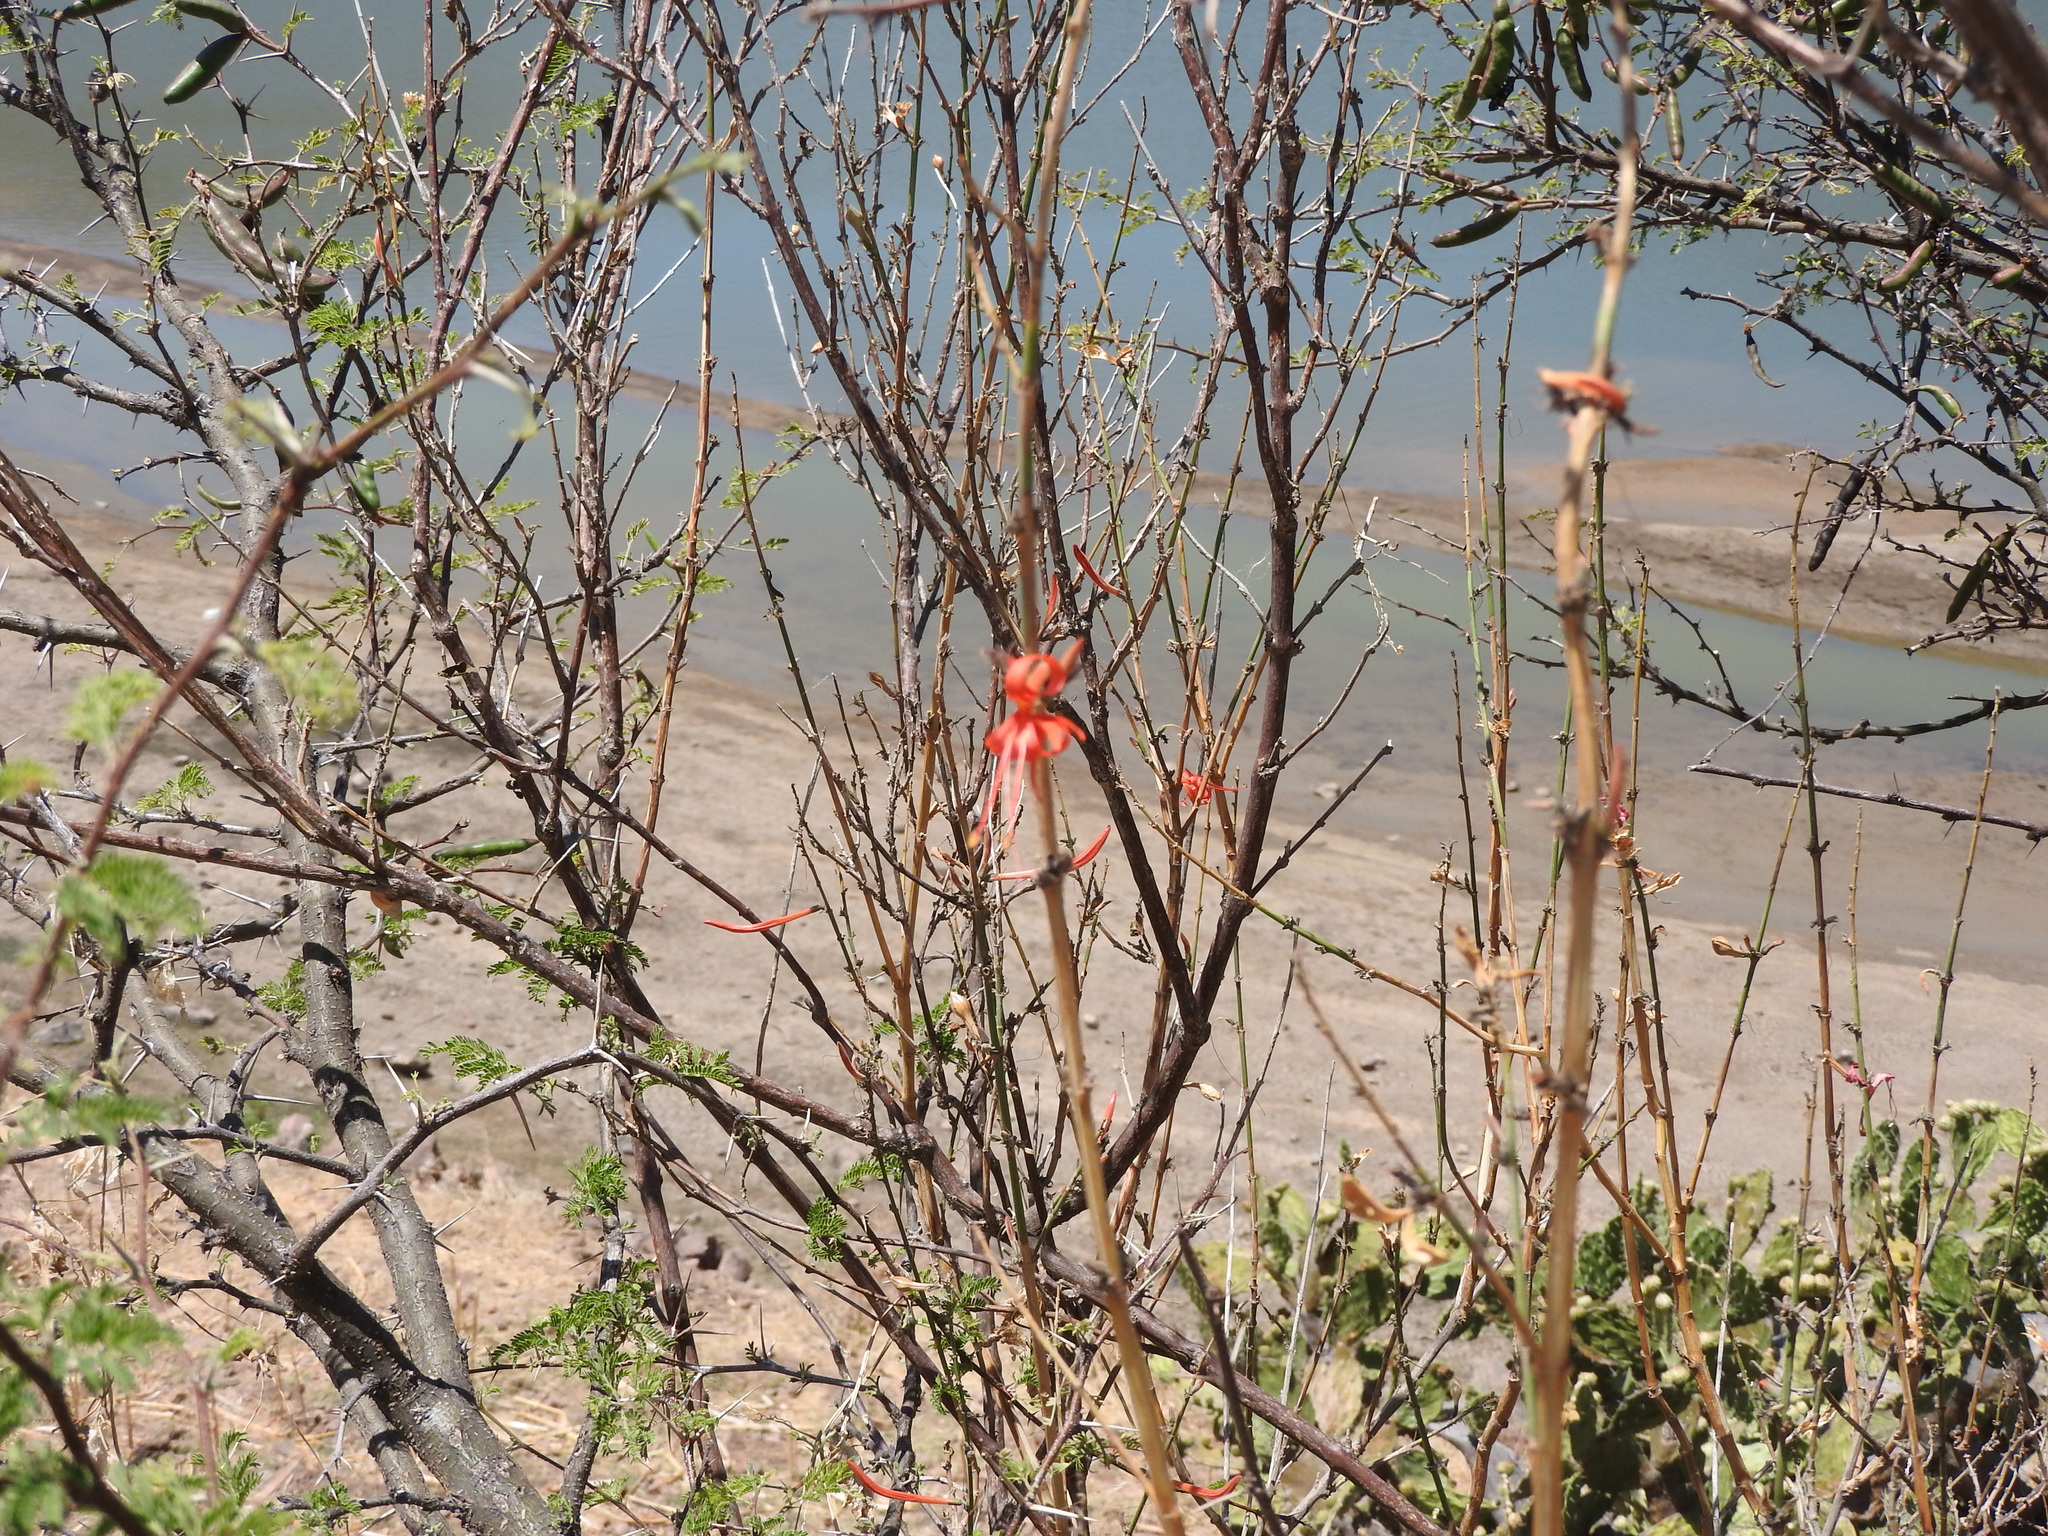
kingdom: Plantae
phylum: Tracheophyta
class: Magnoliopsida
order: Gentianales
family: Rubiaceae
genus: Bouvardia
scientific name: Bouvardia ternifolia
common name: Scarlet bouvardia
